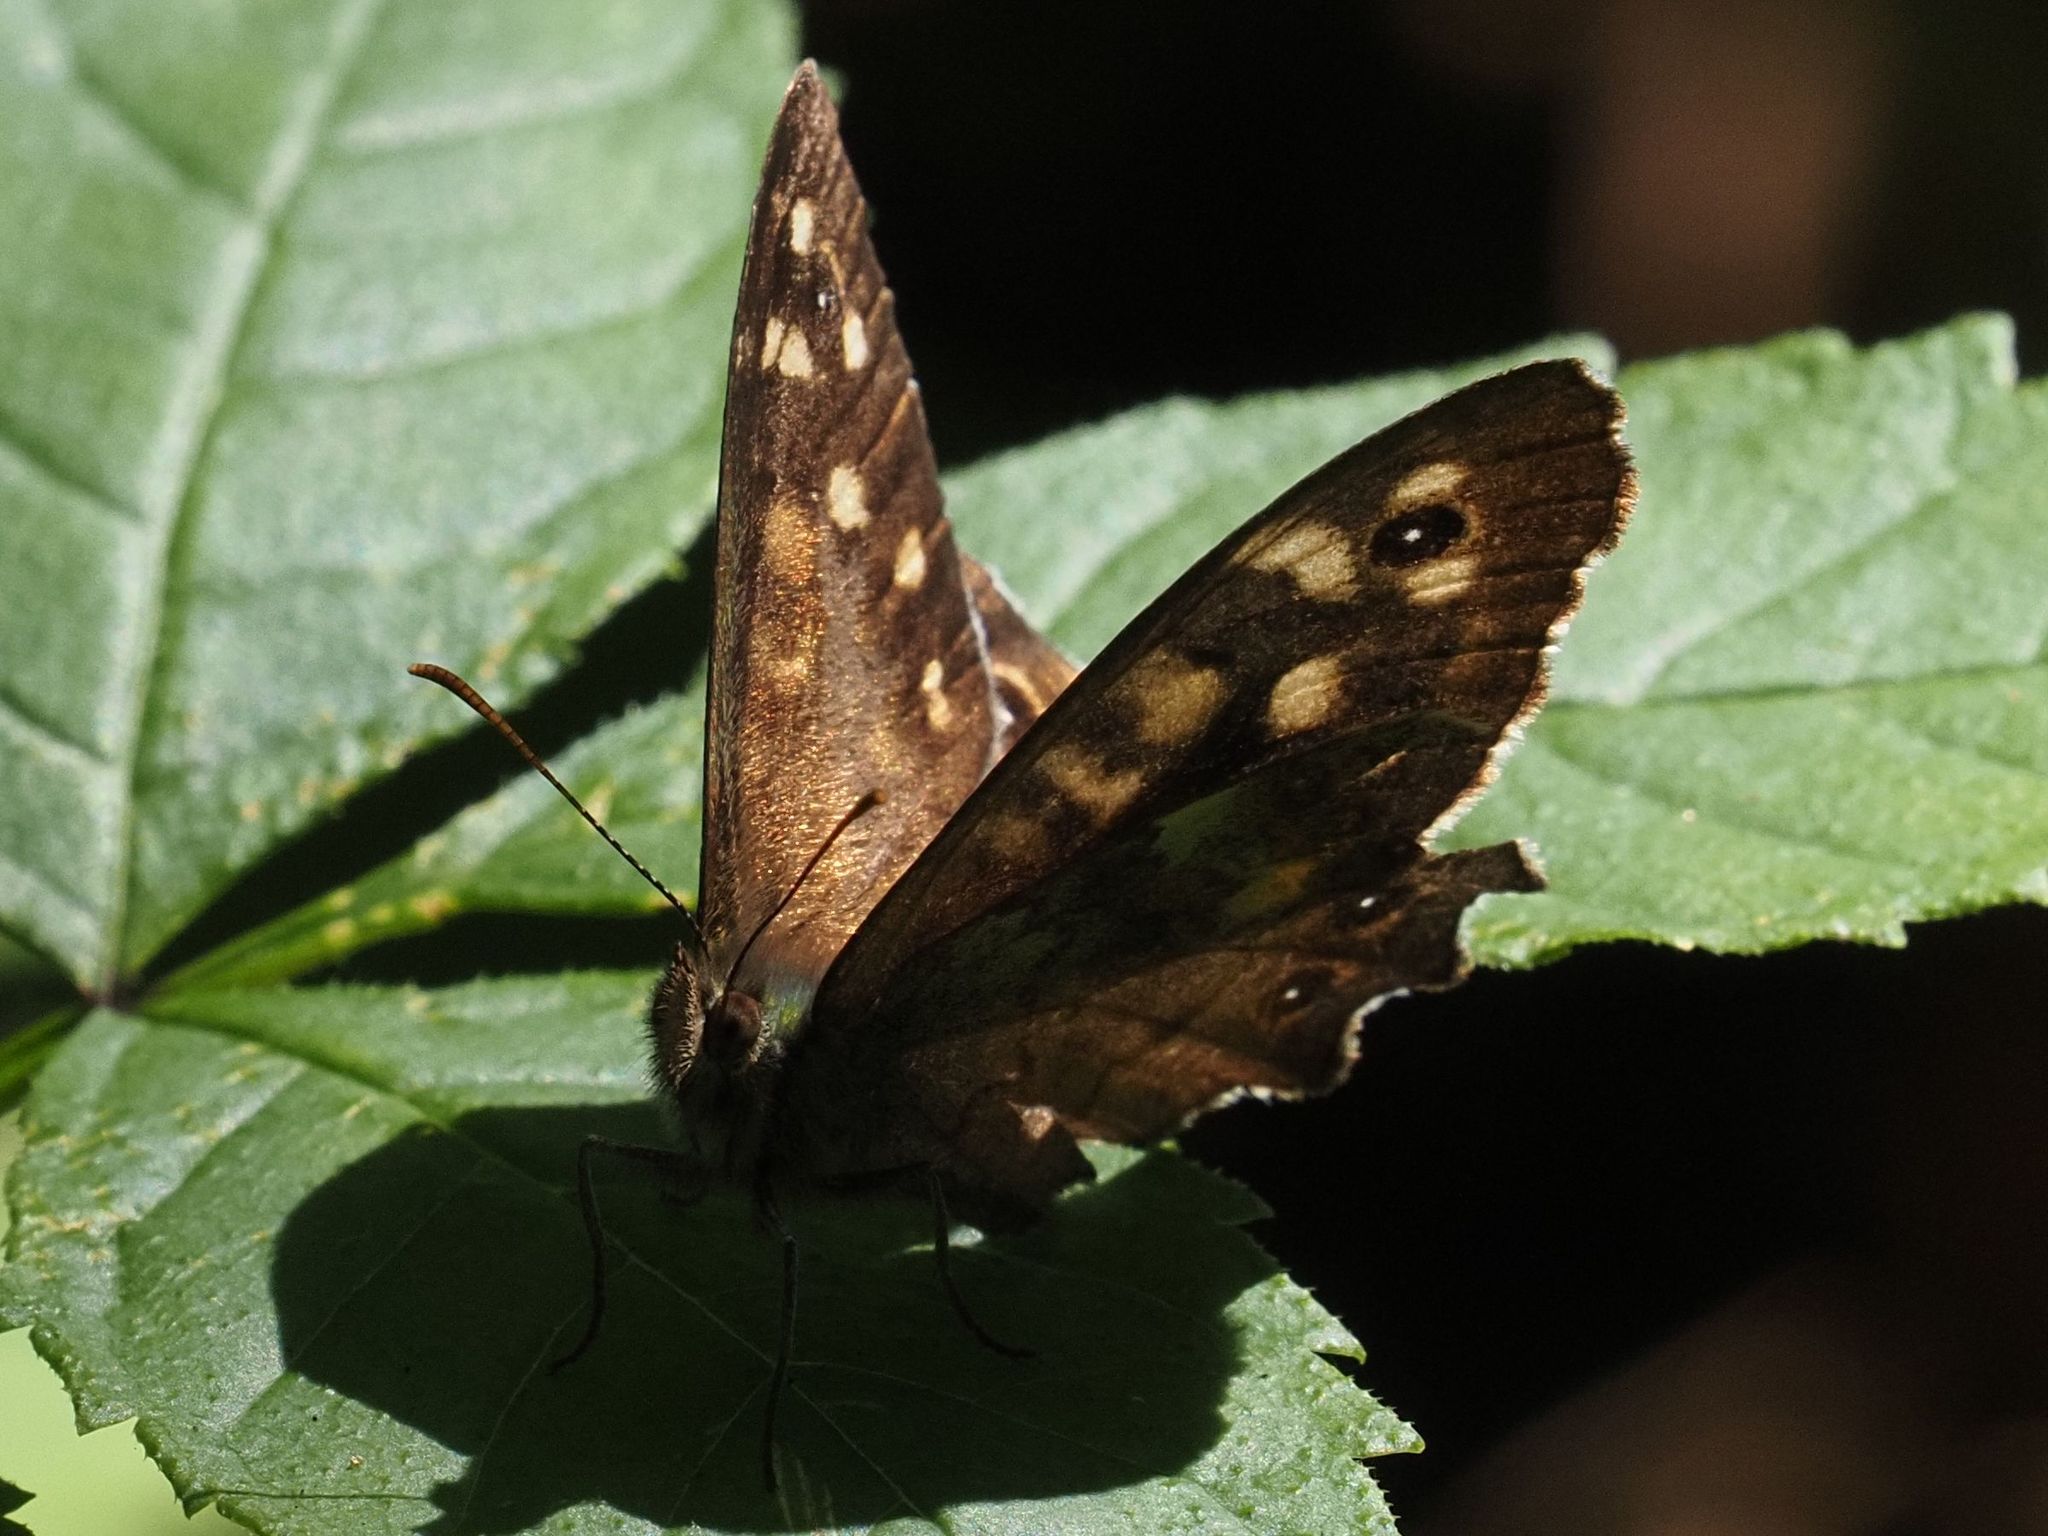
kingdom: Animalia
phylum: Arthropoda
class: Insecta
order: Lepidoptera
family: Nymphalidae
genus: Pararge
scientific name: Pararge aegeria
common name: Speckled wood
